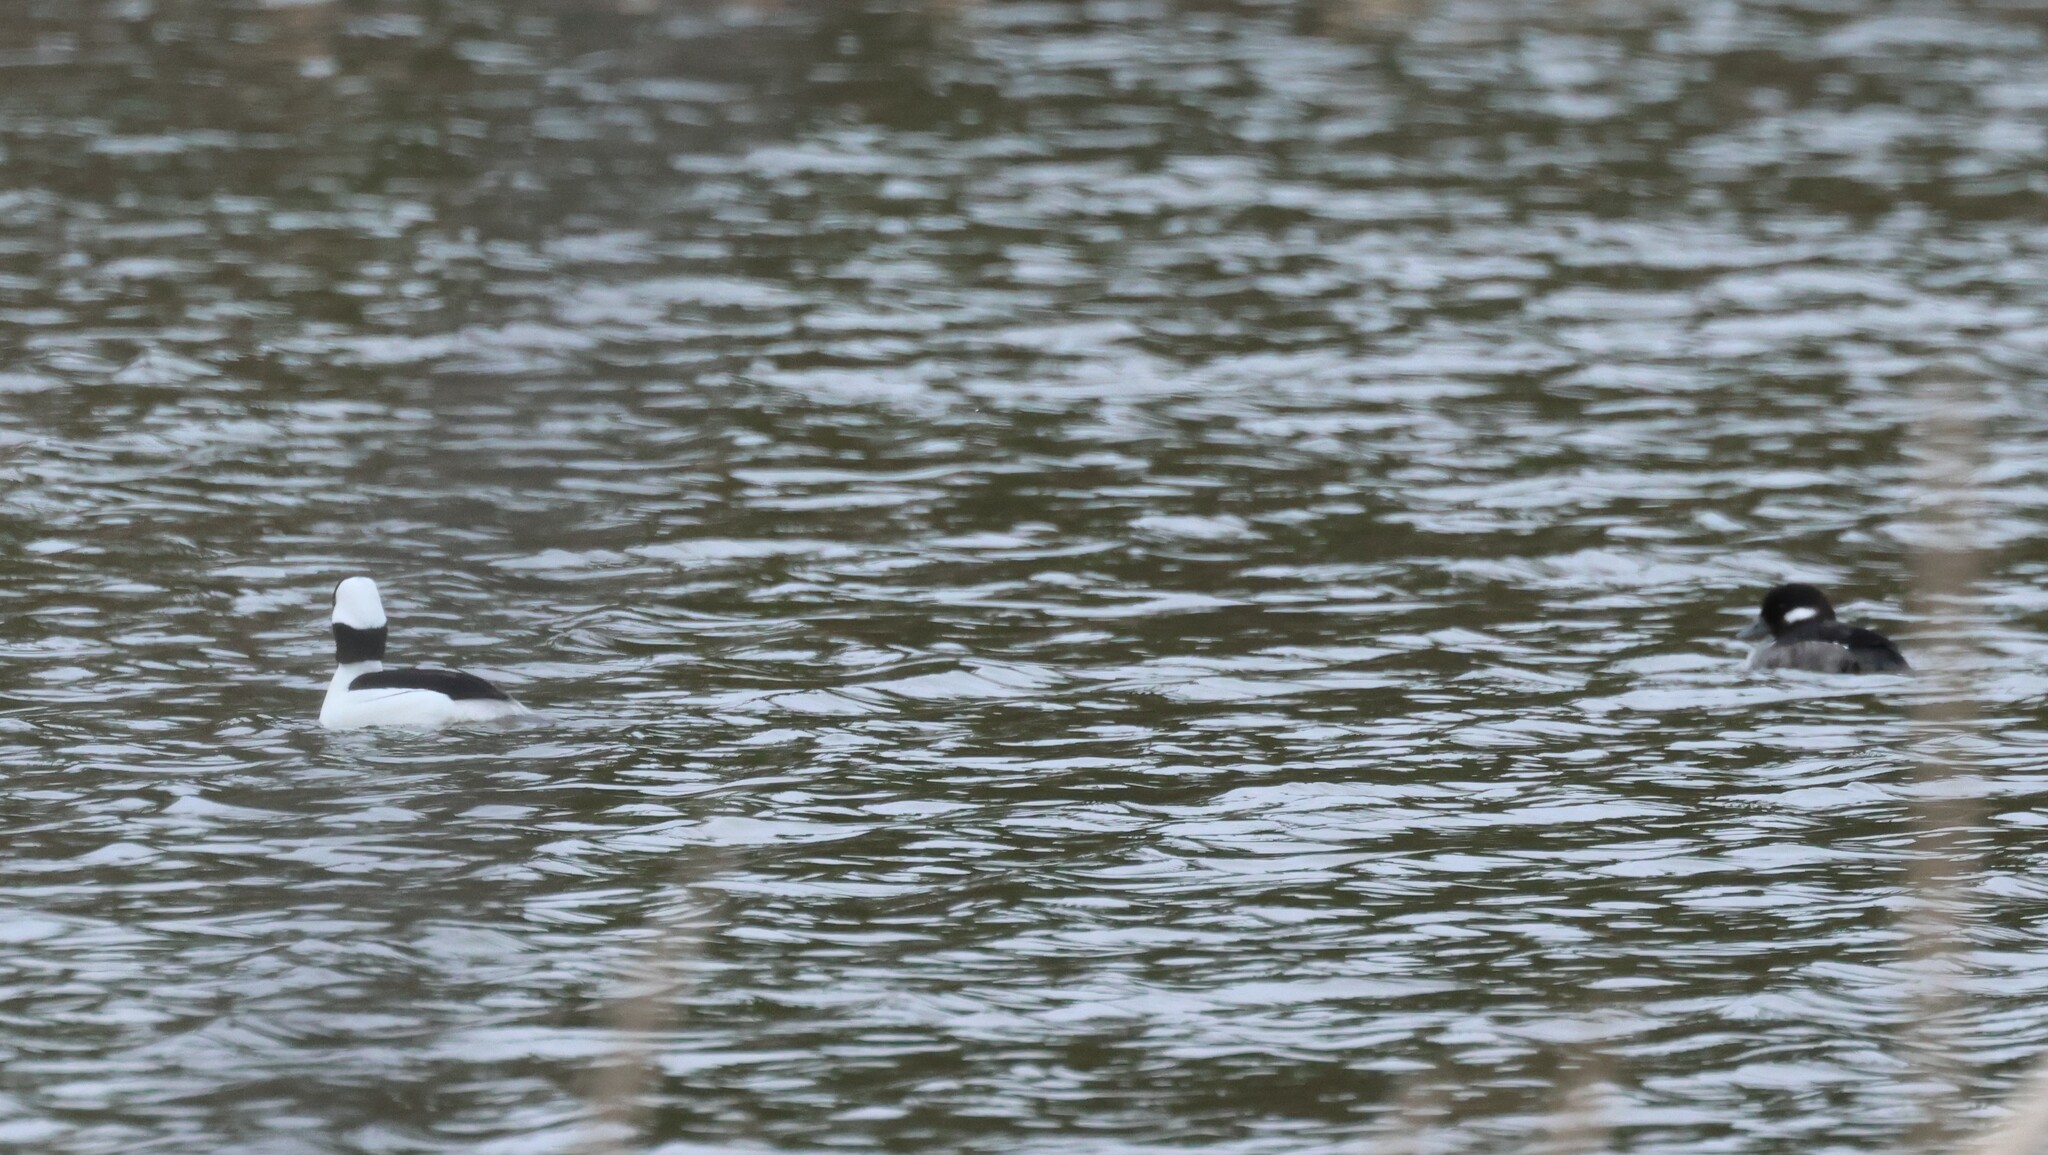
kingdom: Animalia
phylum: Chordata
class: Aves
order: Anseriformes
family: Anatidae
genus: Bucephala
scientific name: Bucephala albeola
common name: Bufflehead
